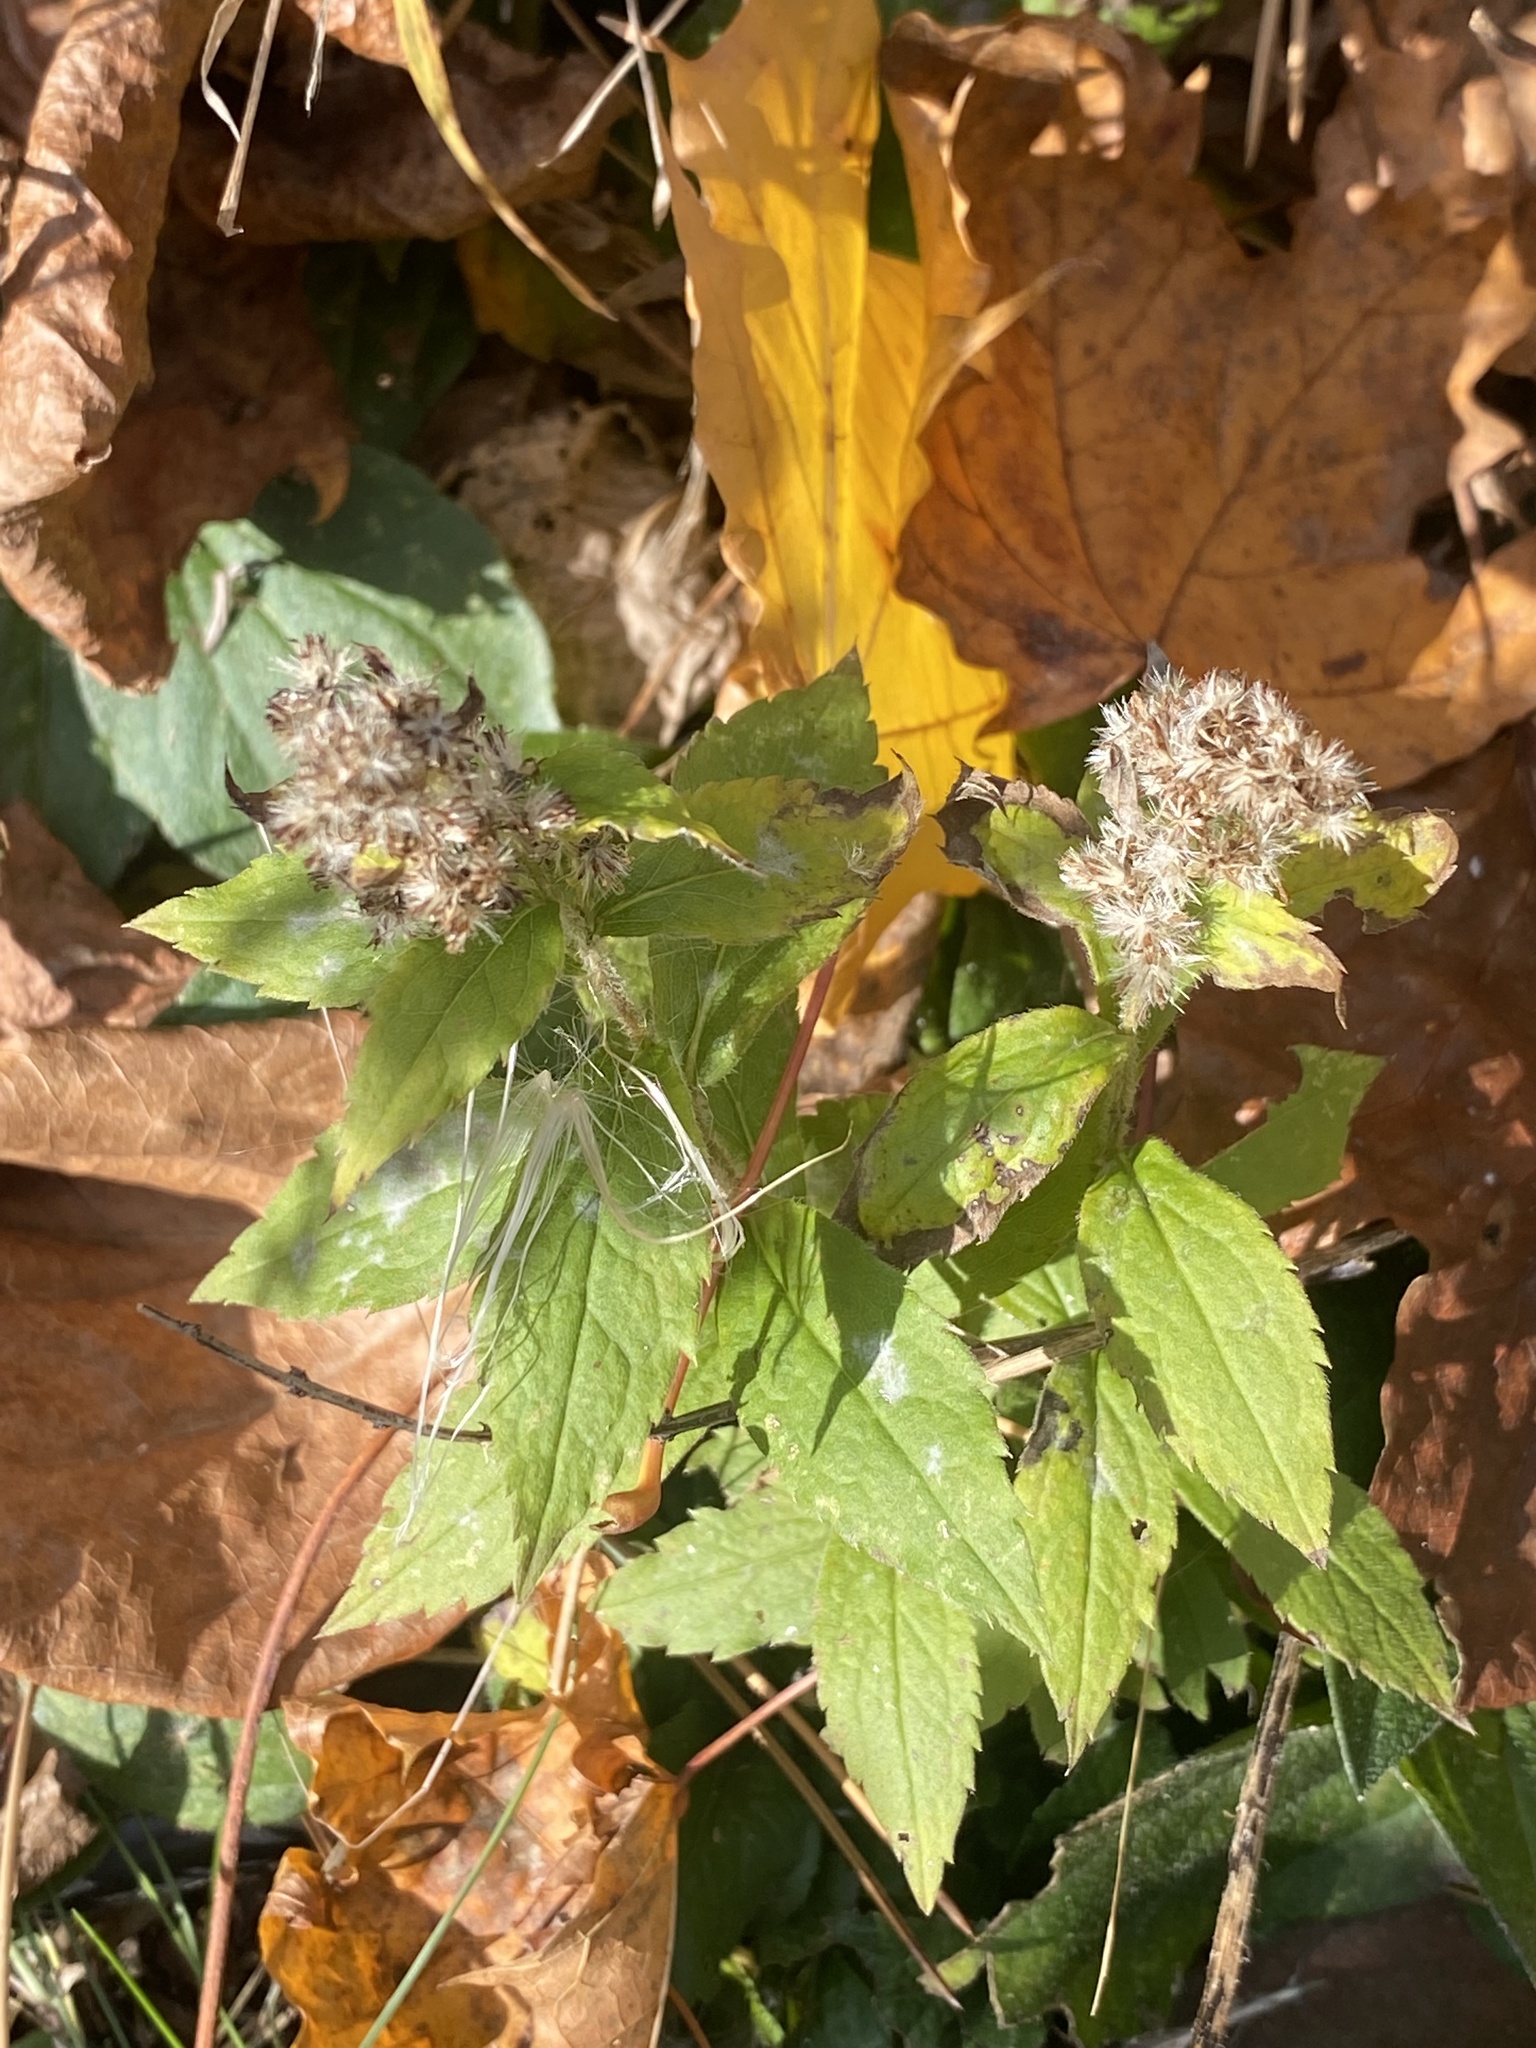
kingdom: Plantae
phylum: Tracheophyta
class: Magnoliopsida
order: Asterales
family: Asteraceae
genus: Solidago
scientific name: Solidago rugosa
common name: Rough-stemmed goldenrod
